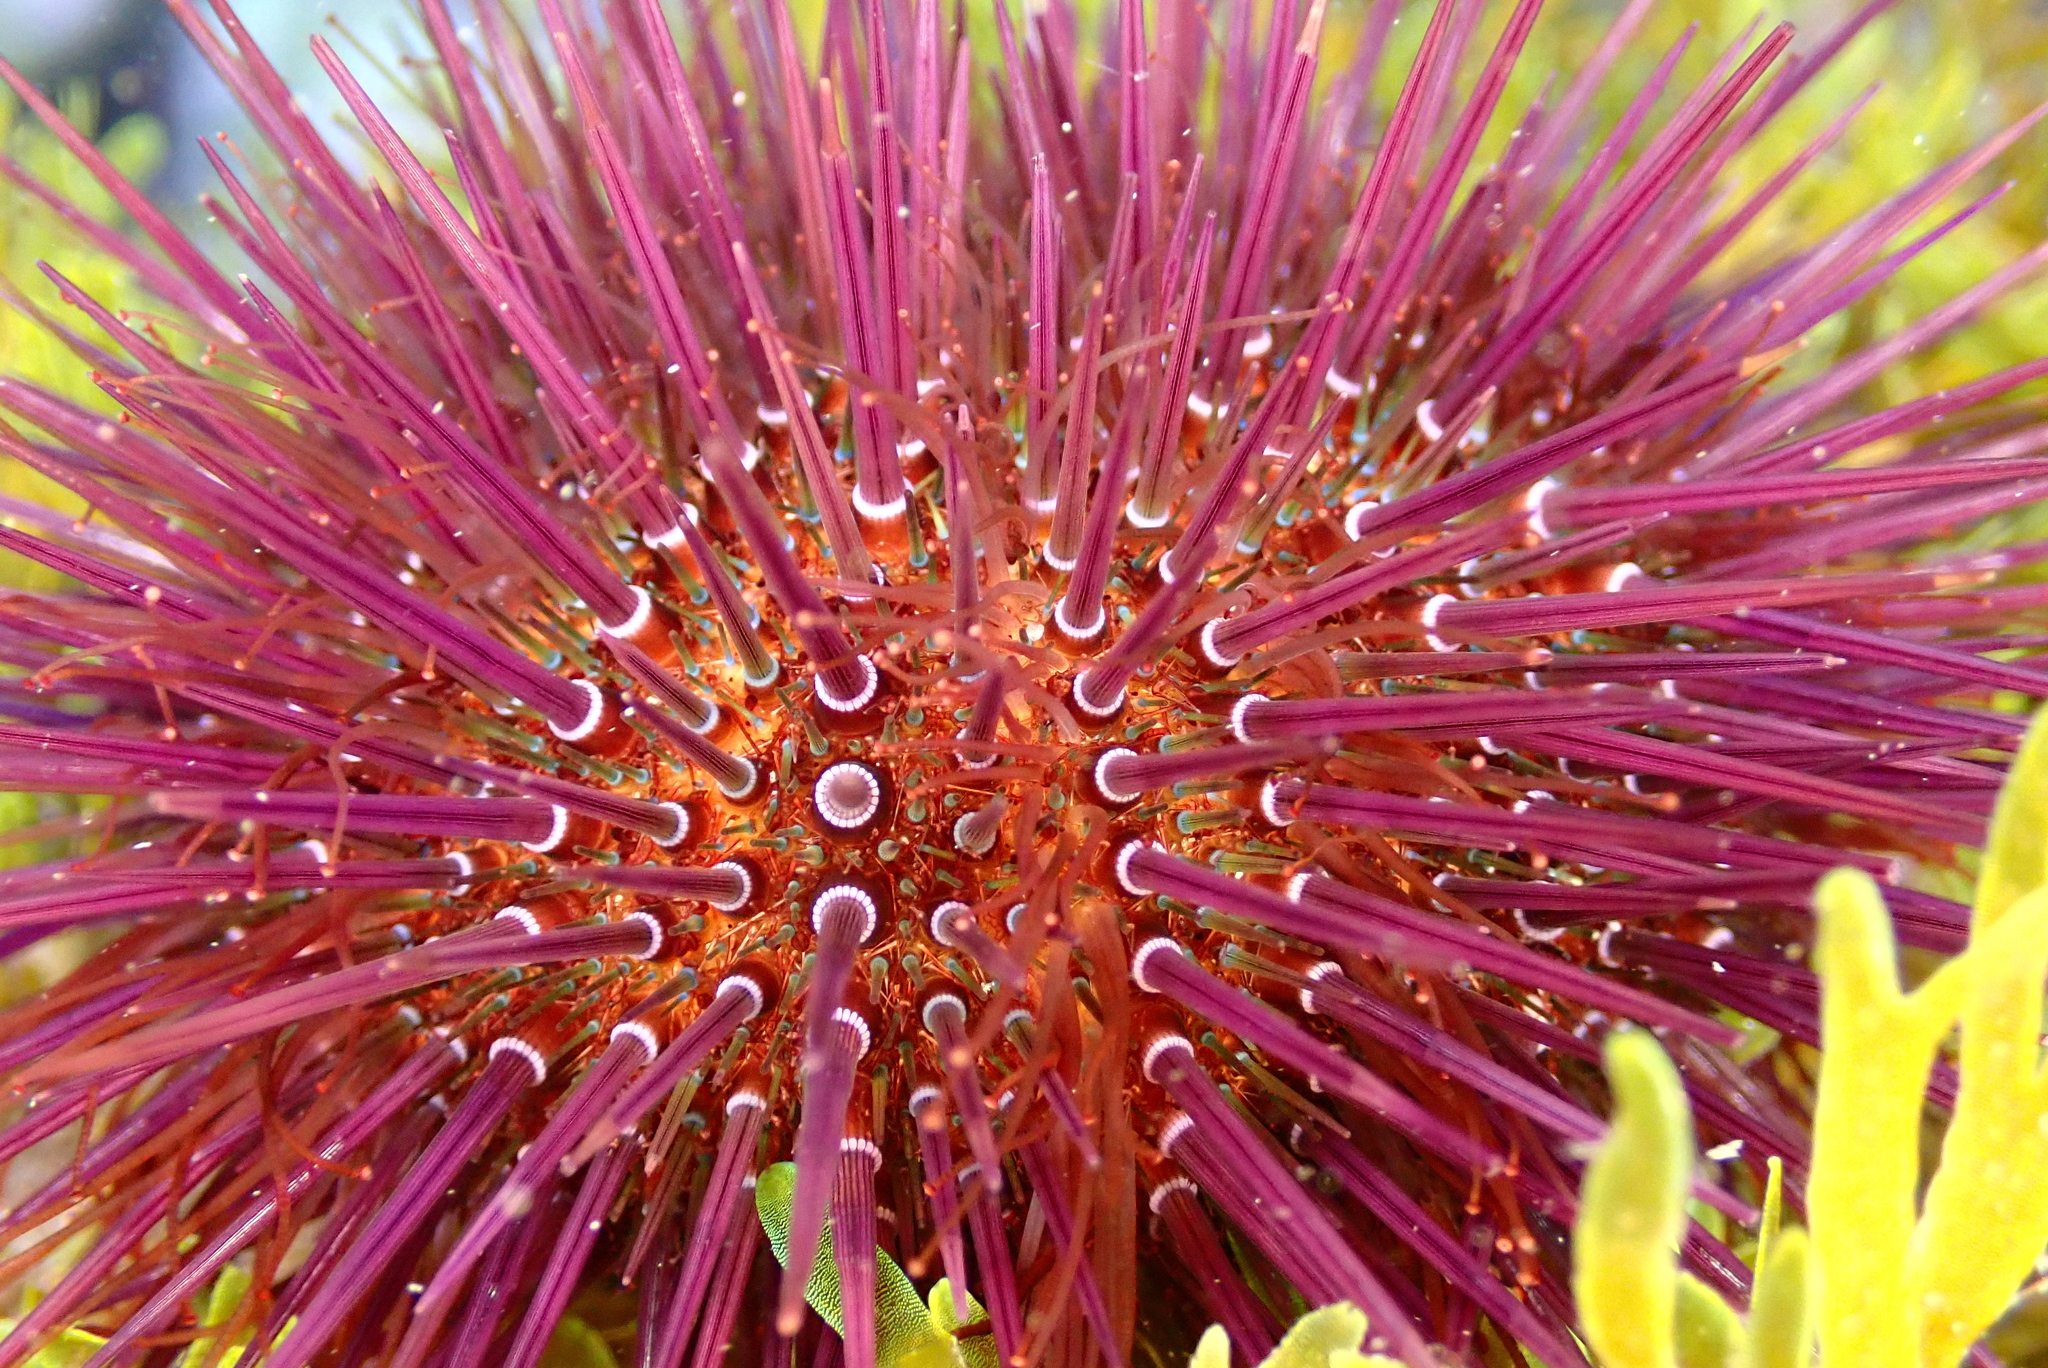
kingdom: Animalia
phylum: Echinodermata
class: Echinoidea
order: Camarodonta
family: Parechinidae
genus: Paracentrotus
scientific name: Paracentrotus lividus
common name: Purple sea urchin
